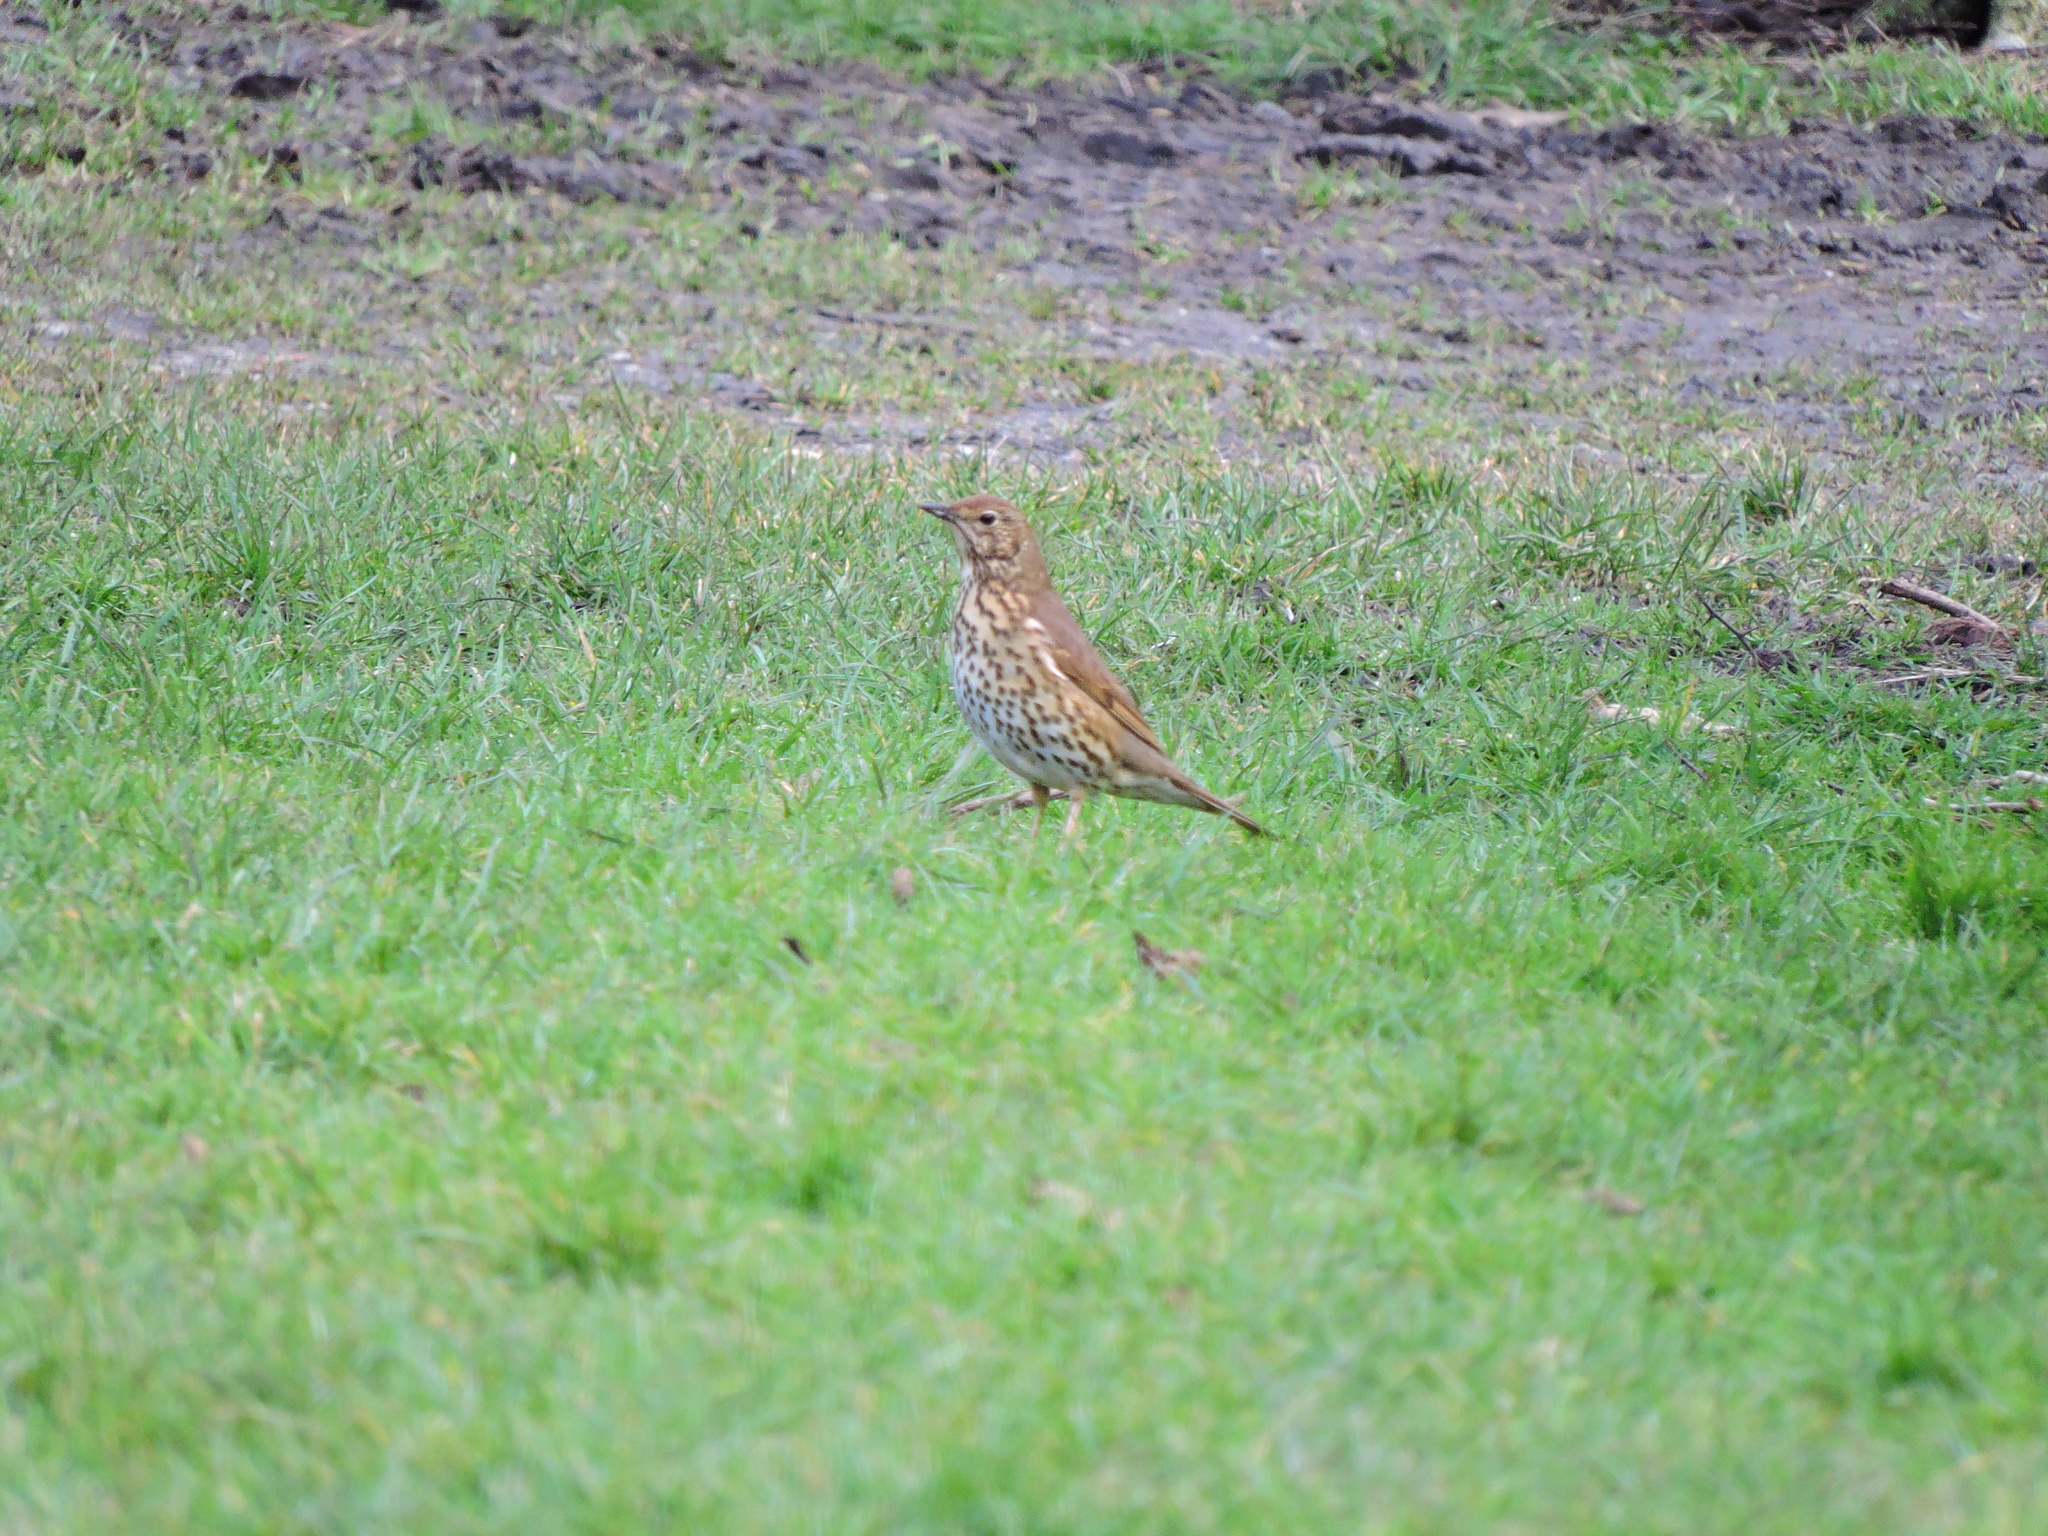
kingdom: Animalia
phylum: Chordata
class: Aves
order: Passeriformes
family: Turdidae
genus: Turdus
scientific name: Turdus philomelos
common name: Song thrush
